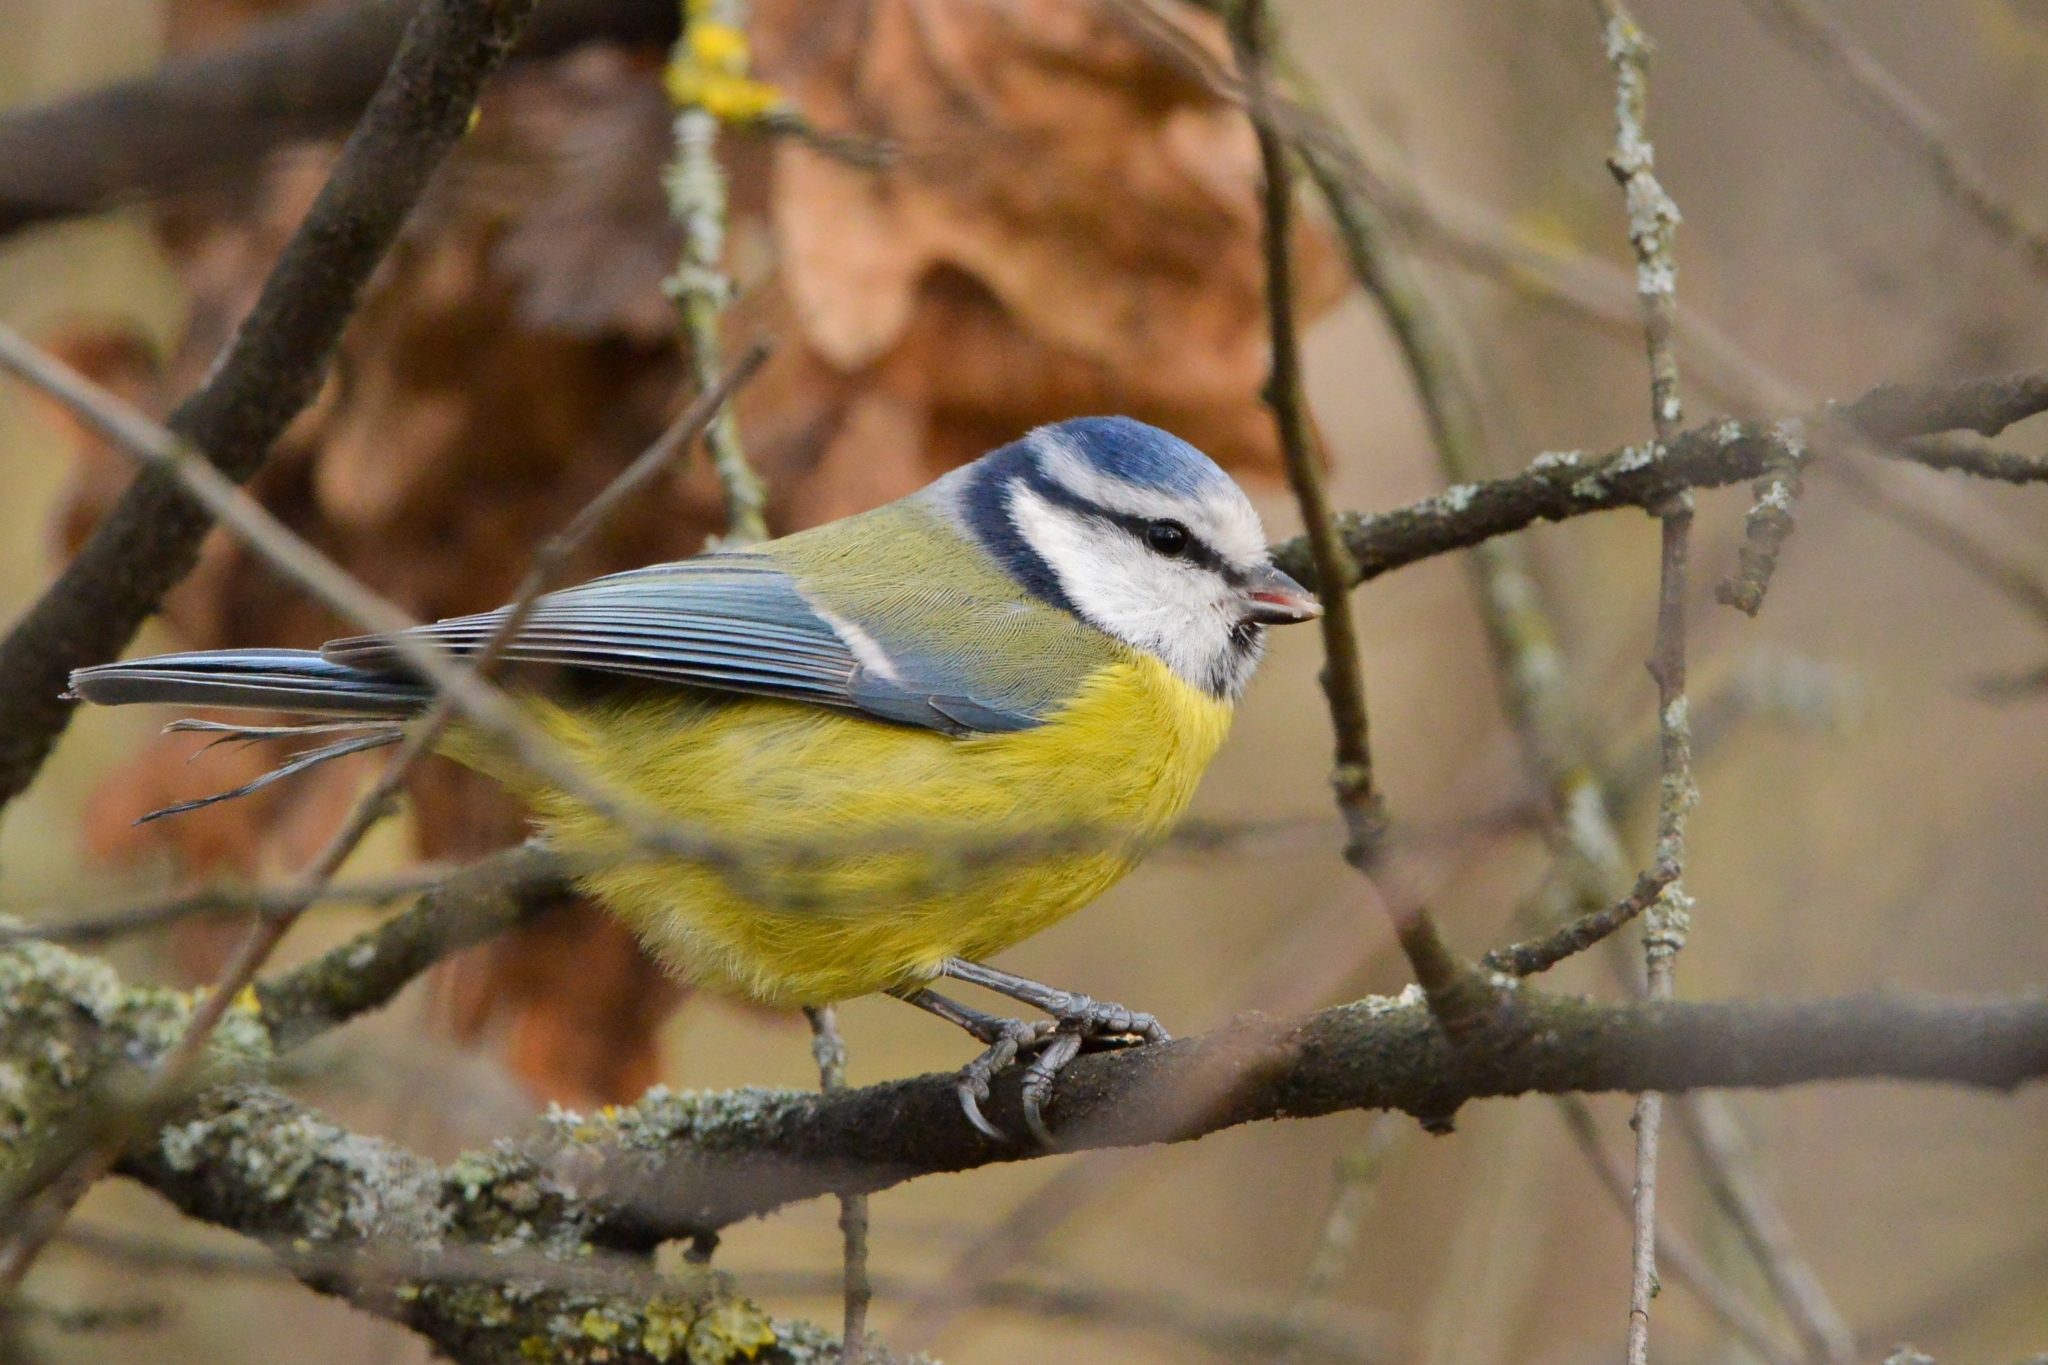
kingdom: Animalia
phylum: Chordata
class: Aves
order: Passeriformes
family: Paridae
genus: Cyanistes
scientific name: Cyanistes caeruleus
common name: Eurasian blue tit
